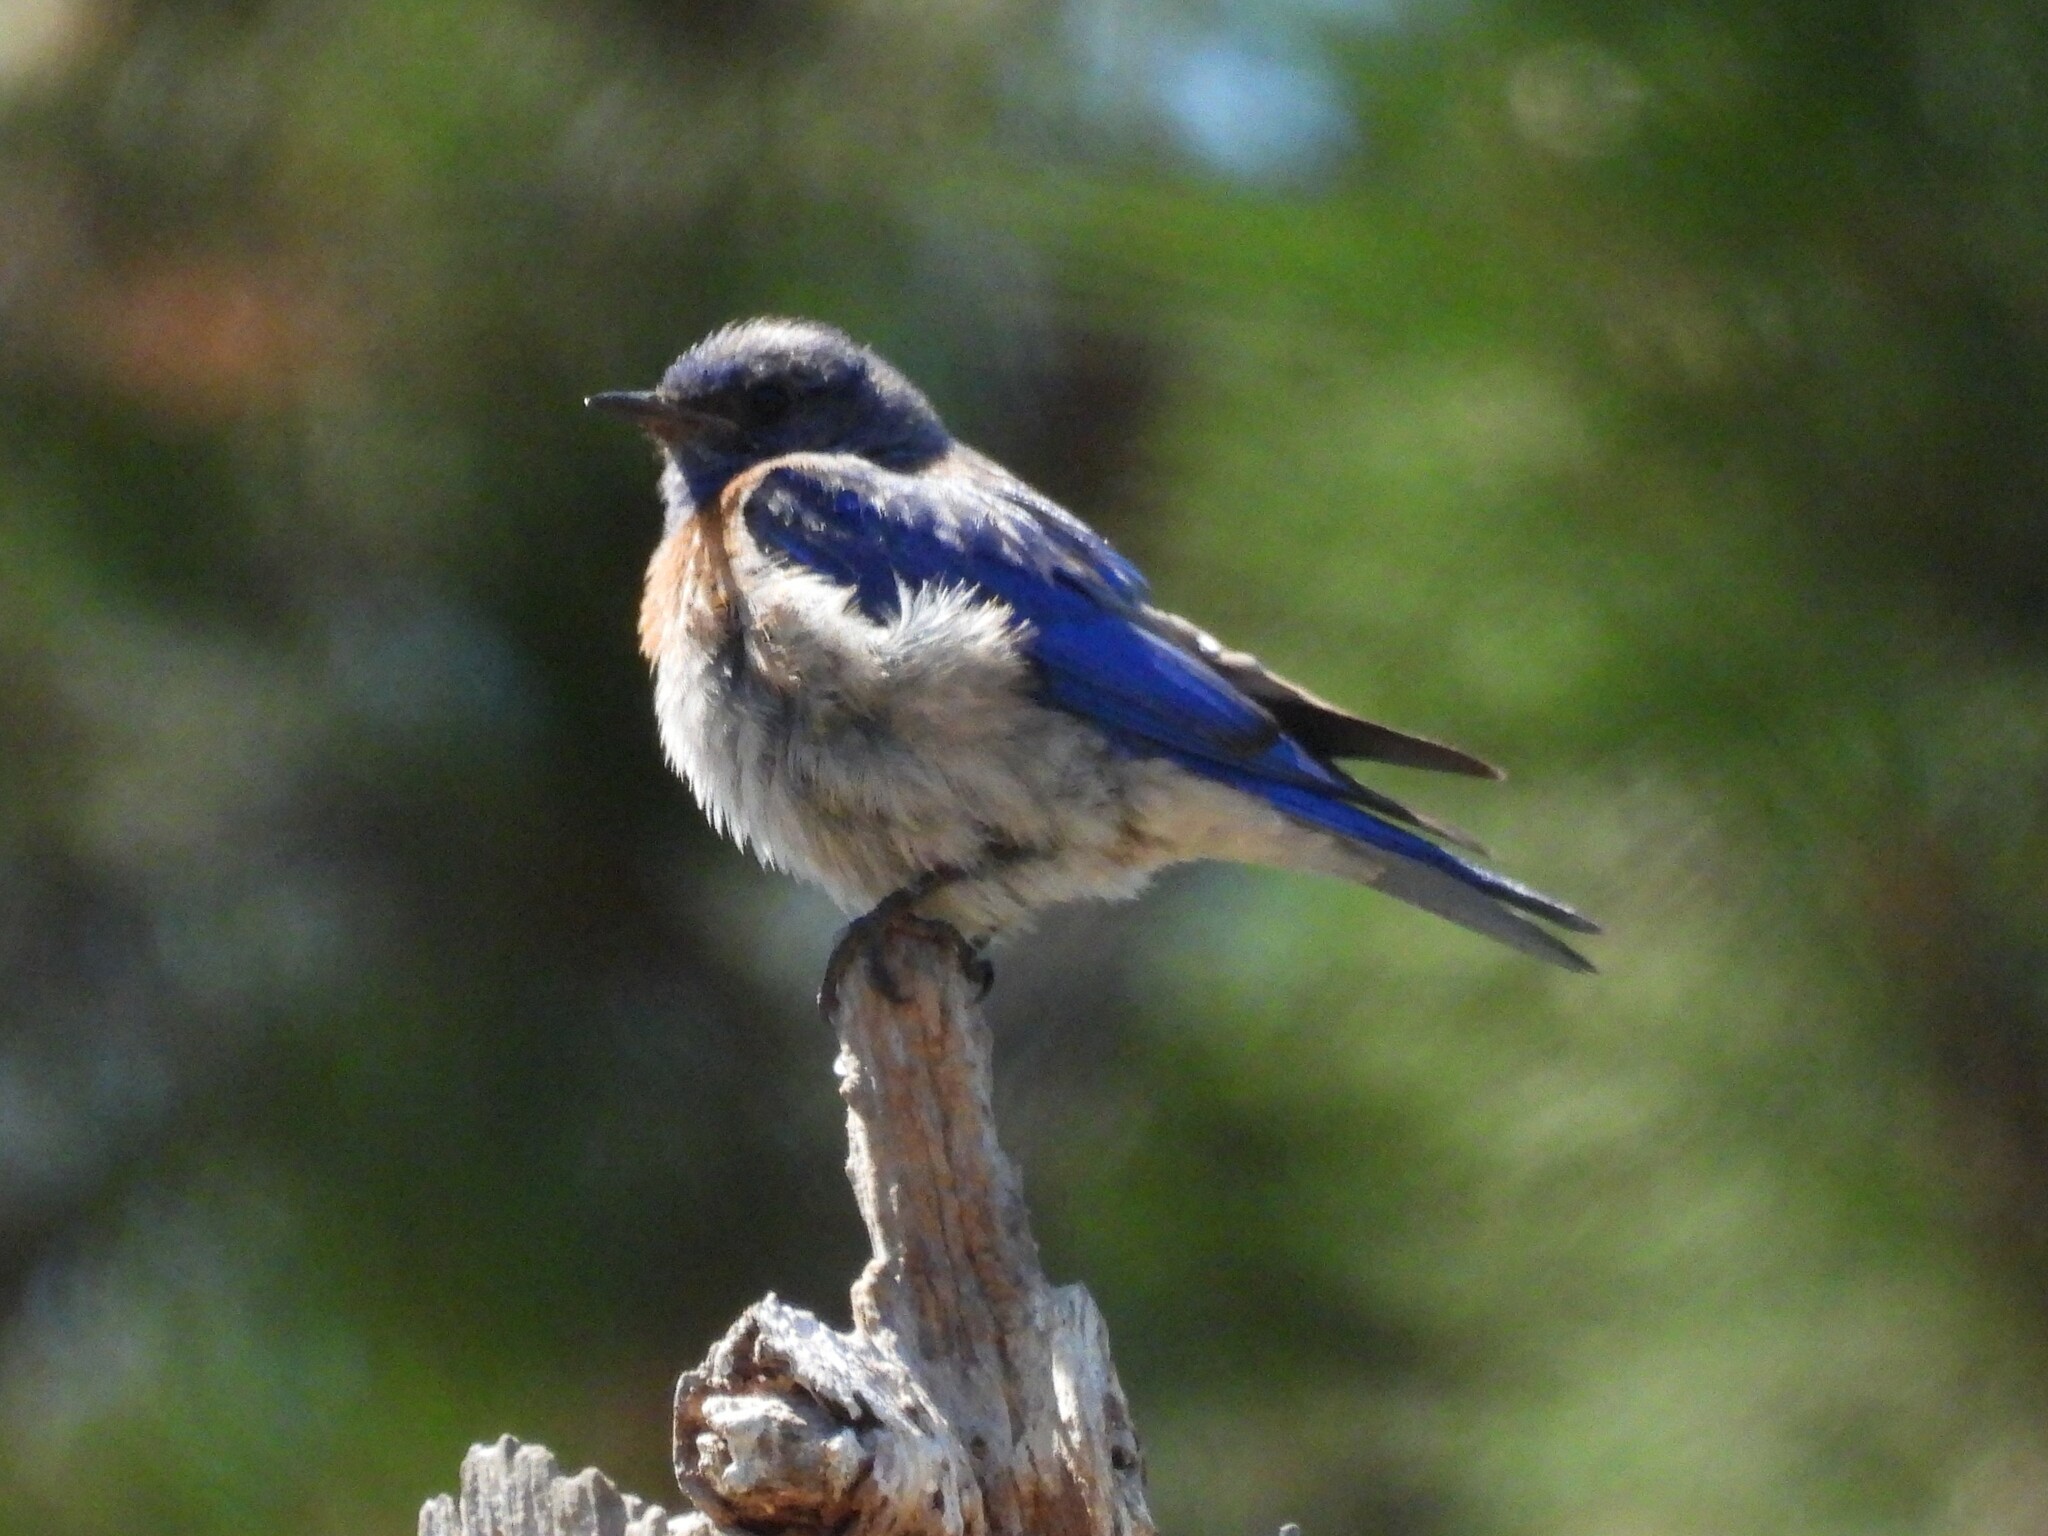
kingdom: Animalia
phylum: Chordata
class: Aves
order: Passeriformes
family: Turdidae
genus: Sialia
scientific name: Sialia mexicana
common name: Western bluebird
